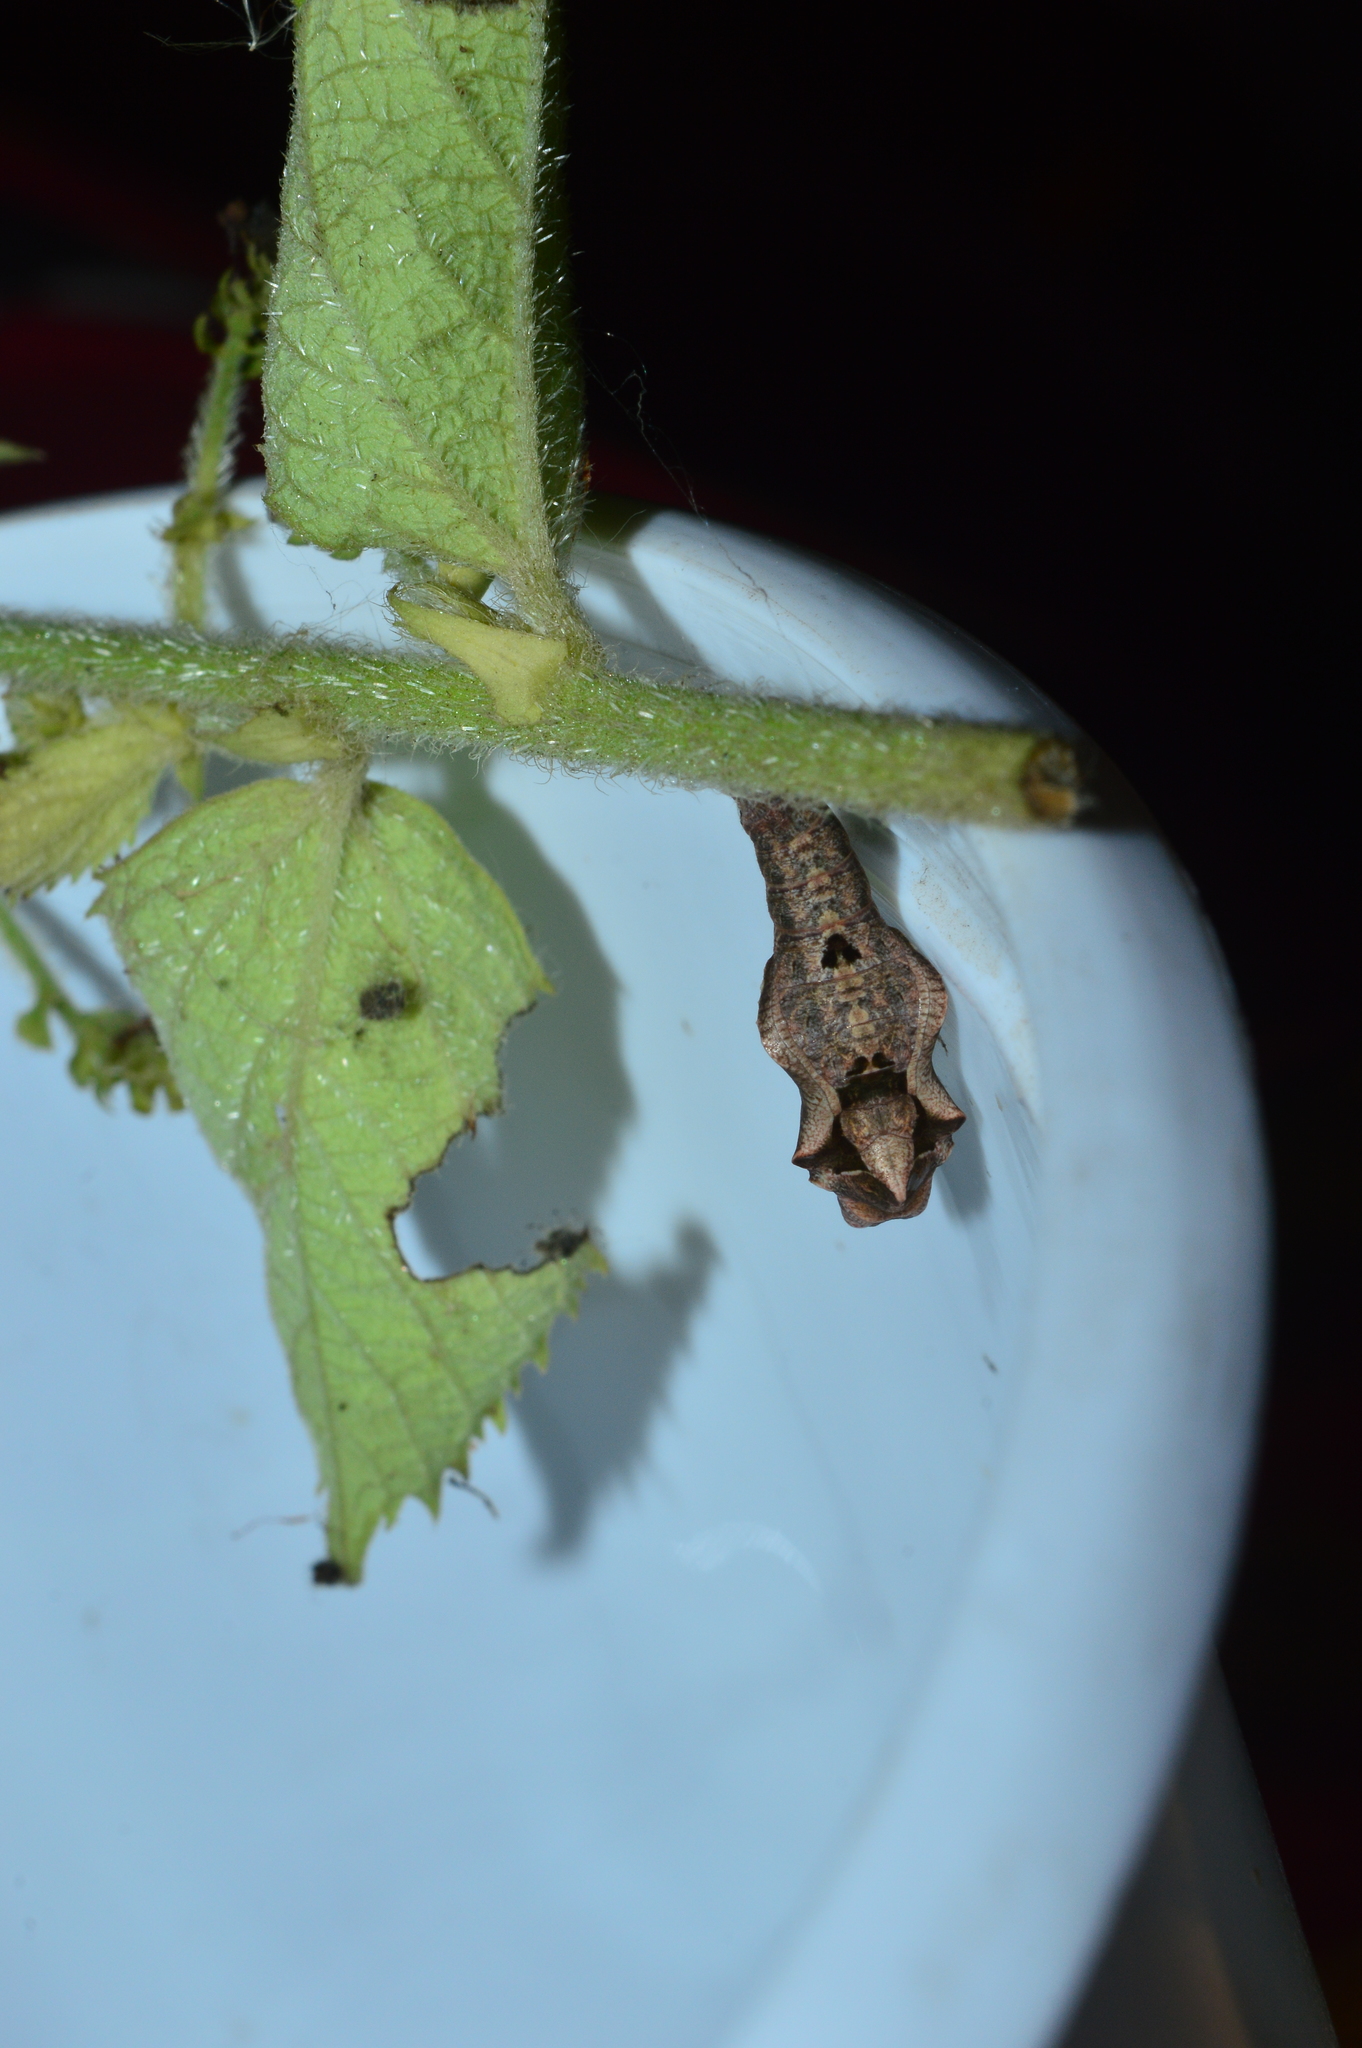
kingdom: Animalia
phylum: Arthropoda
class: Insecta
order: Lepidoptera
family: Nymphalidae
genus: Ariadne
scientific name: Ariadne ariadne
